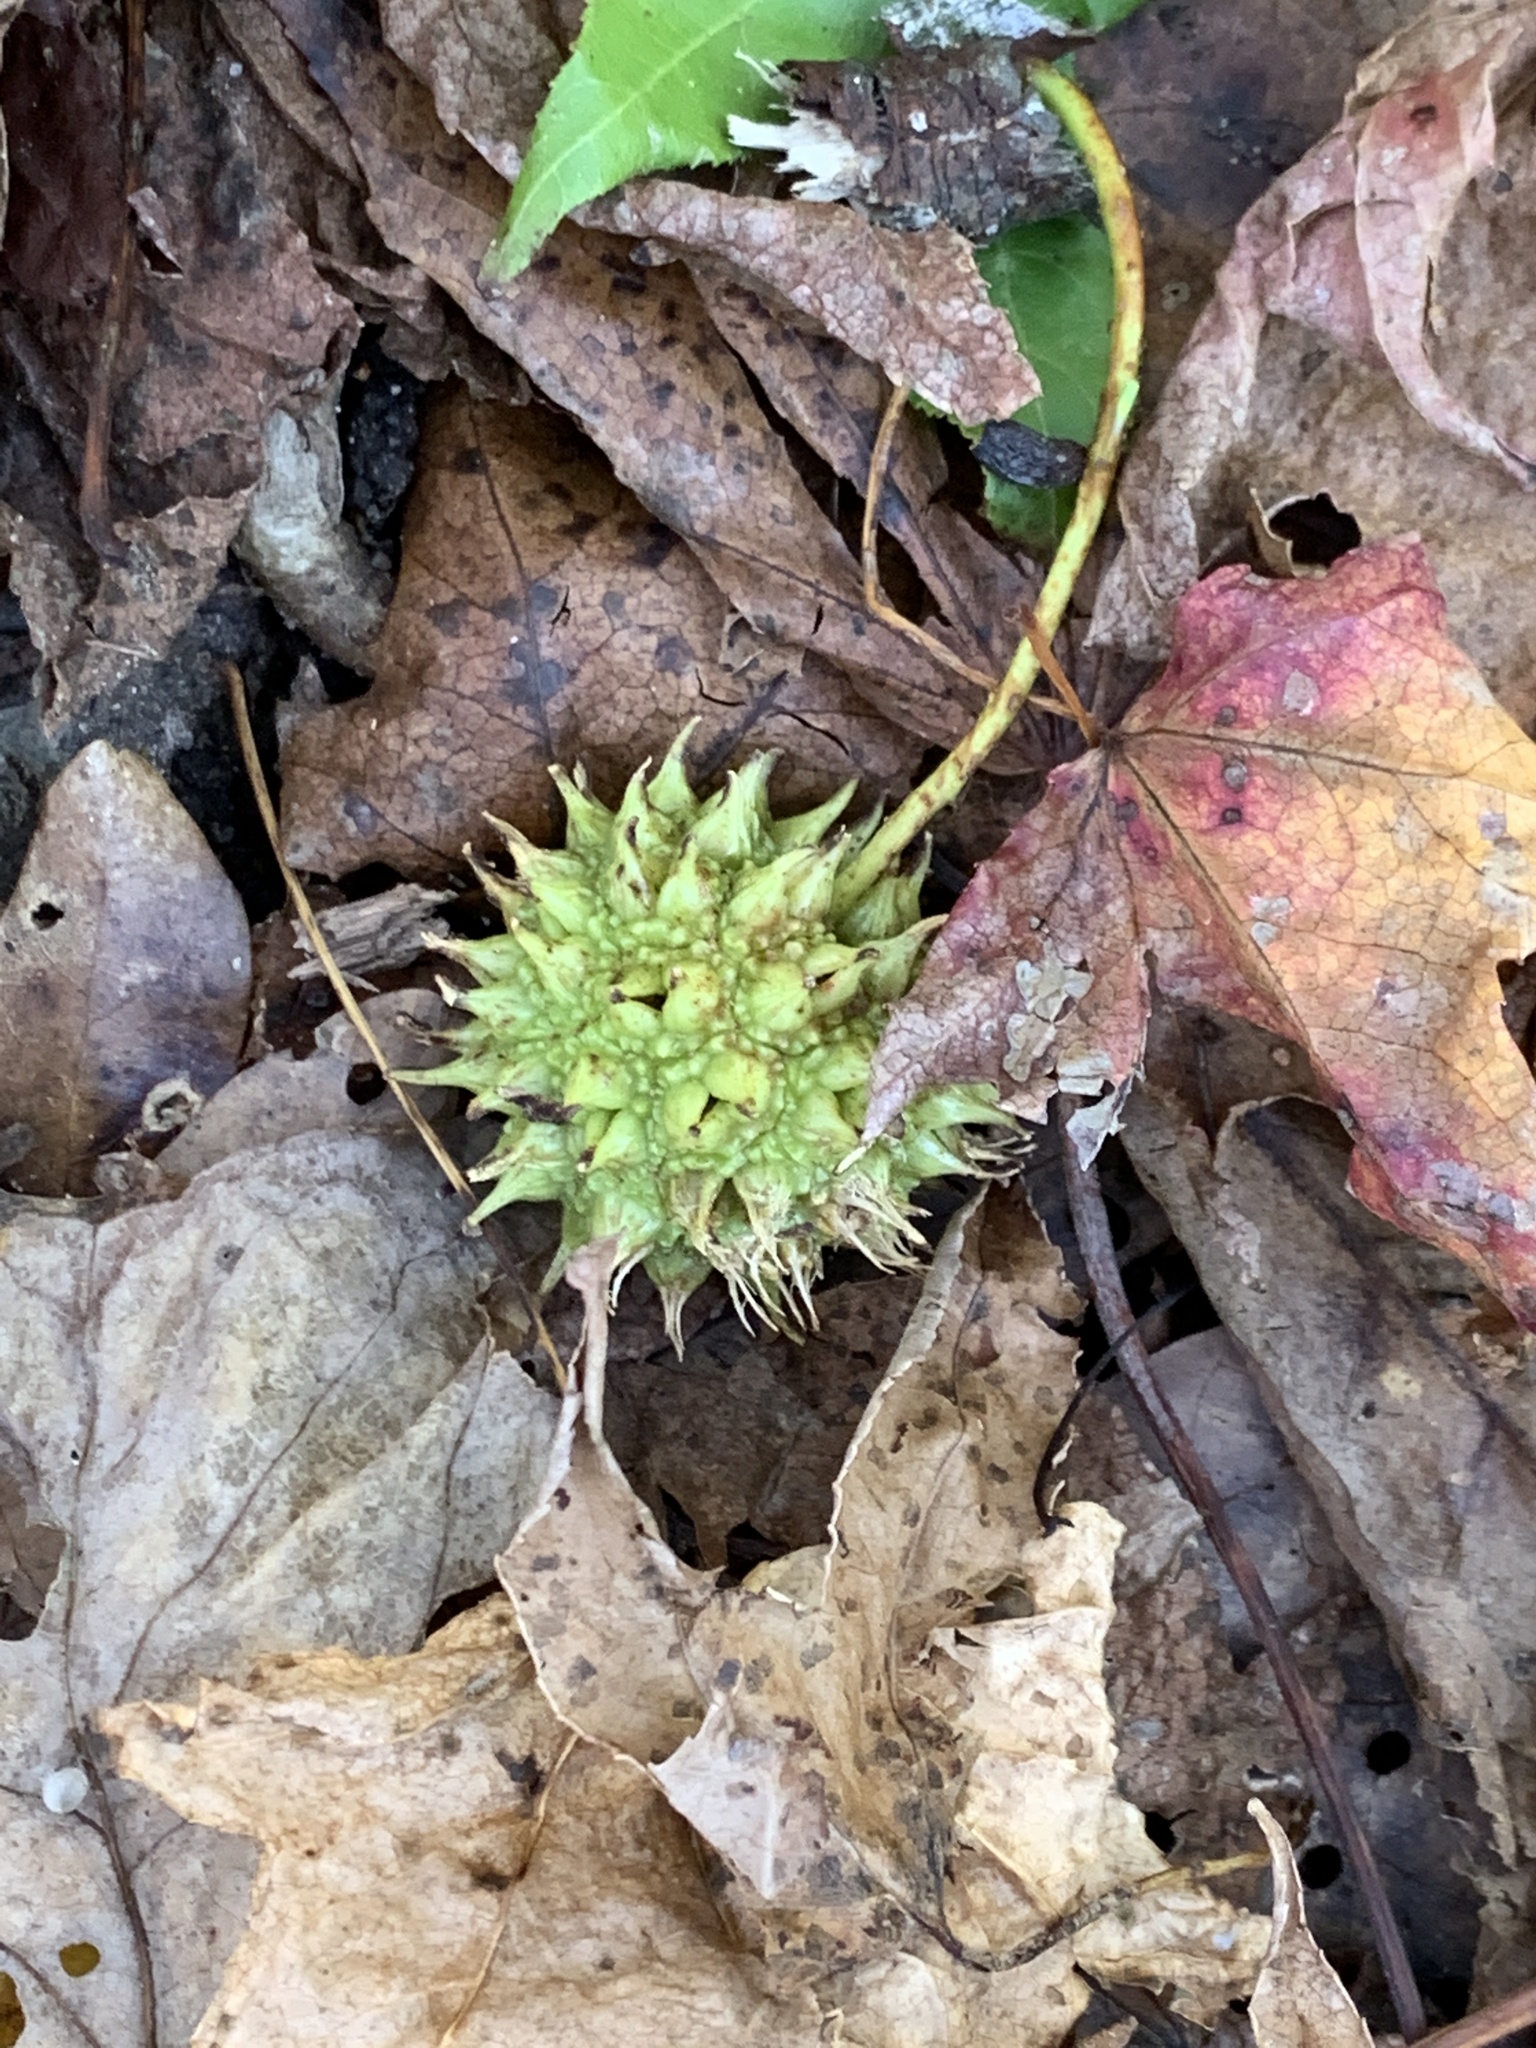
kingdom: Plantae
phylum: Tracheophyta
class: Magnoliopsida
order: Saxifragales
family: Altingiaceae
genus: Liquidambar
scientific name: Liquidambar styraciflua
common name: Sweet gum
